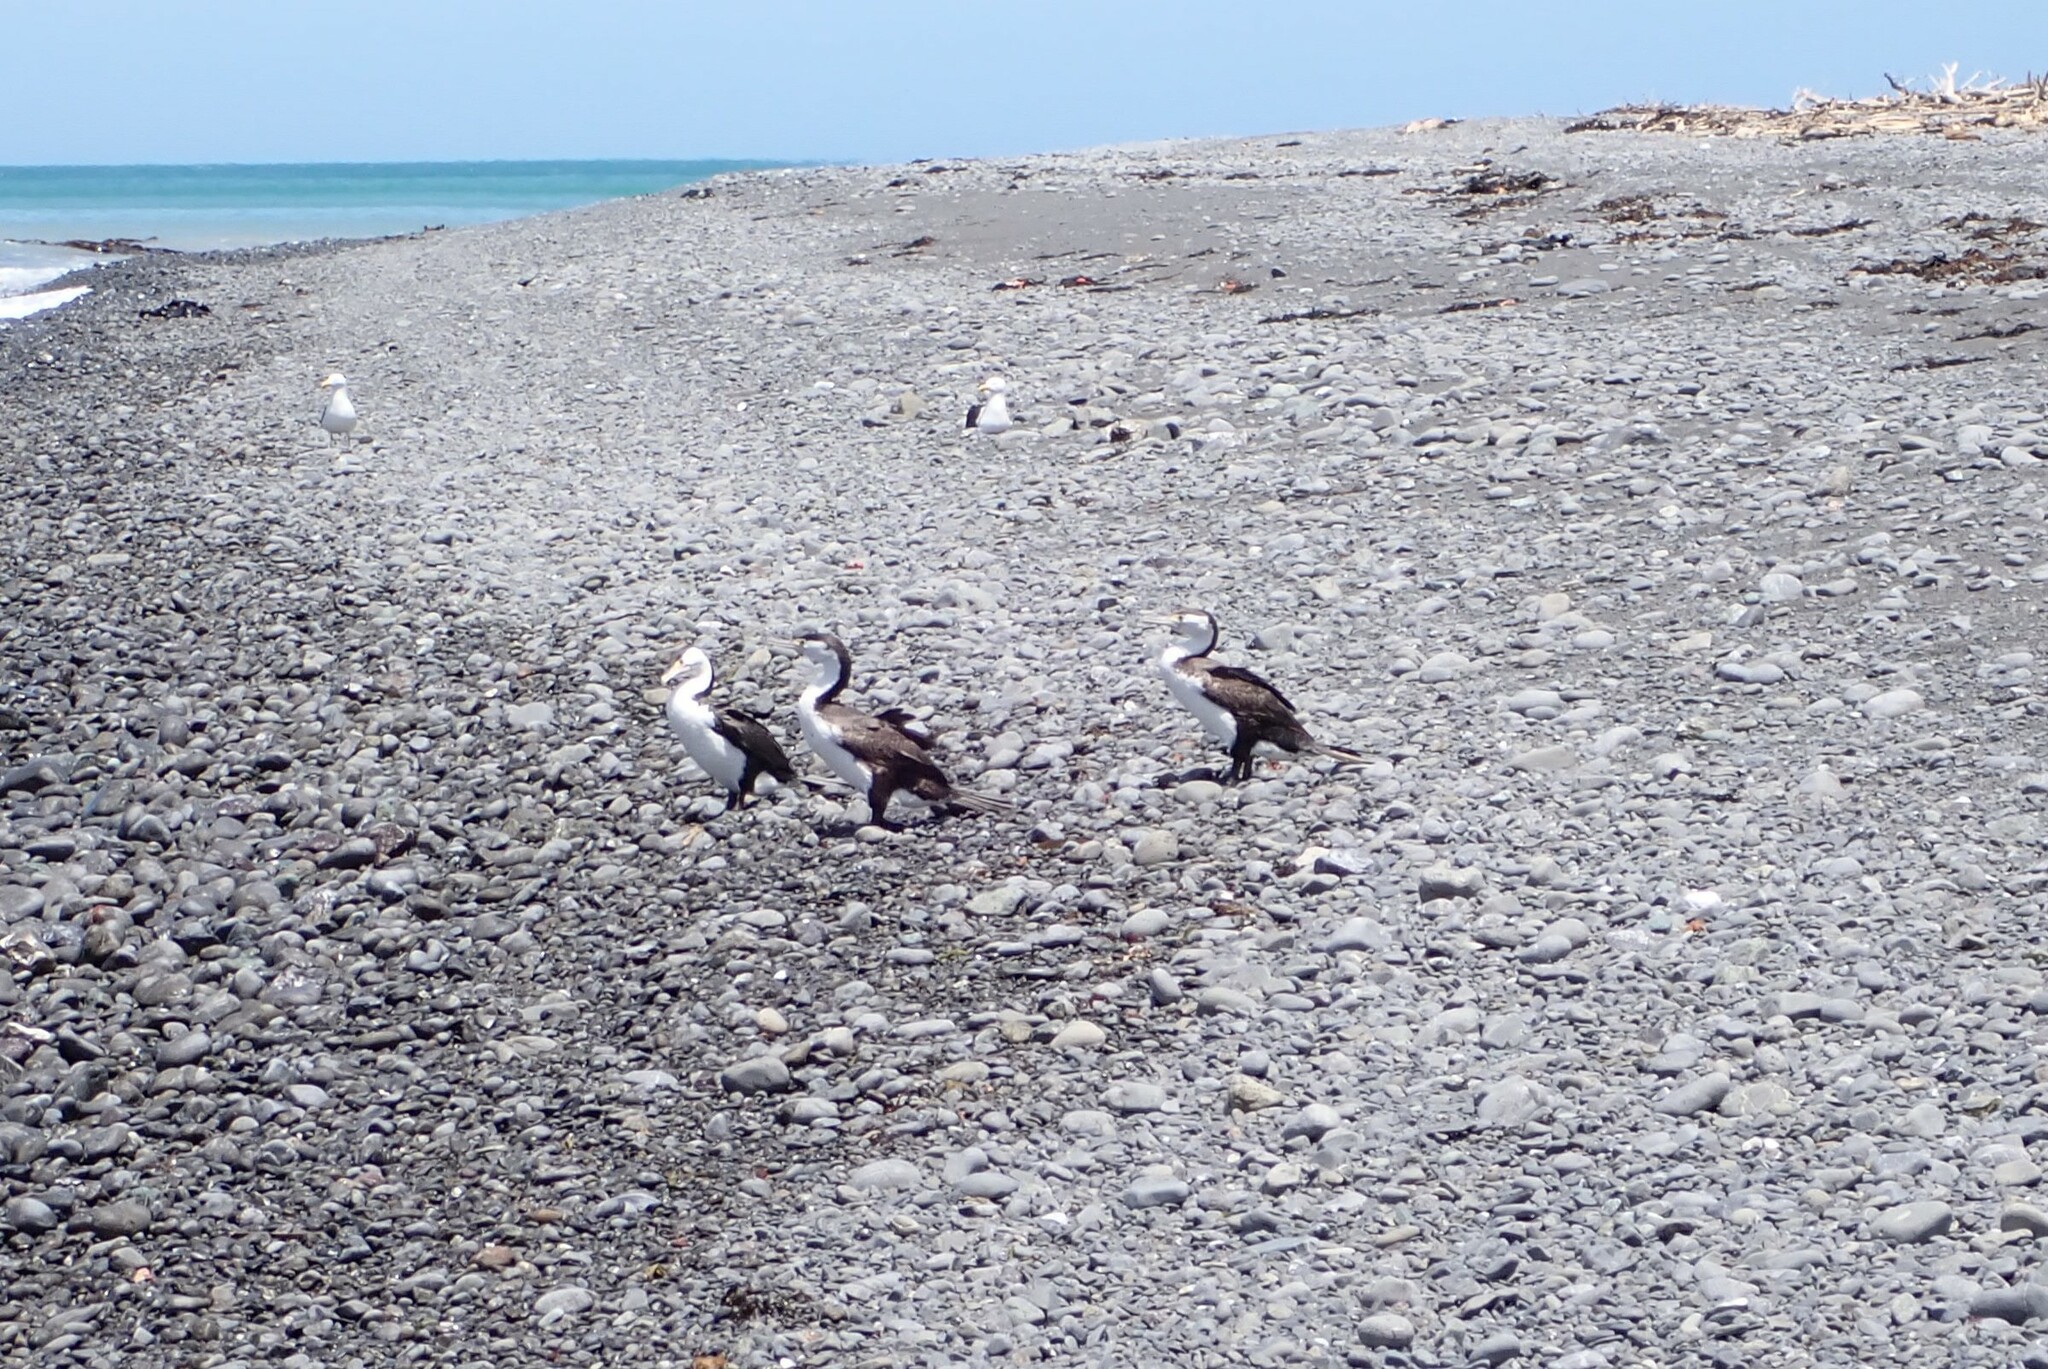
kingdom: Animalia
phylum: Chordata
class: Aves
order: Suliformes
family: Phalacrocoracidae
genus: Phalacrocorax
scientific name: Phalacrocorax varius
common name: Pied cormorant
